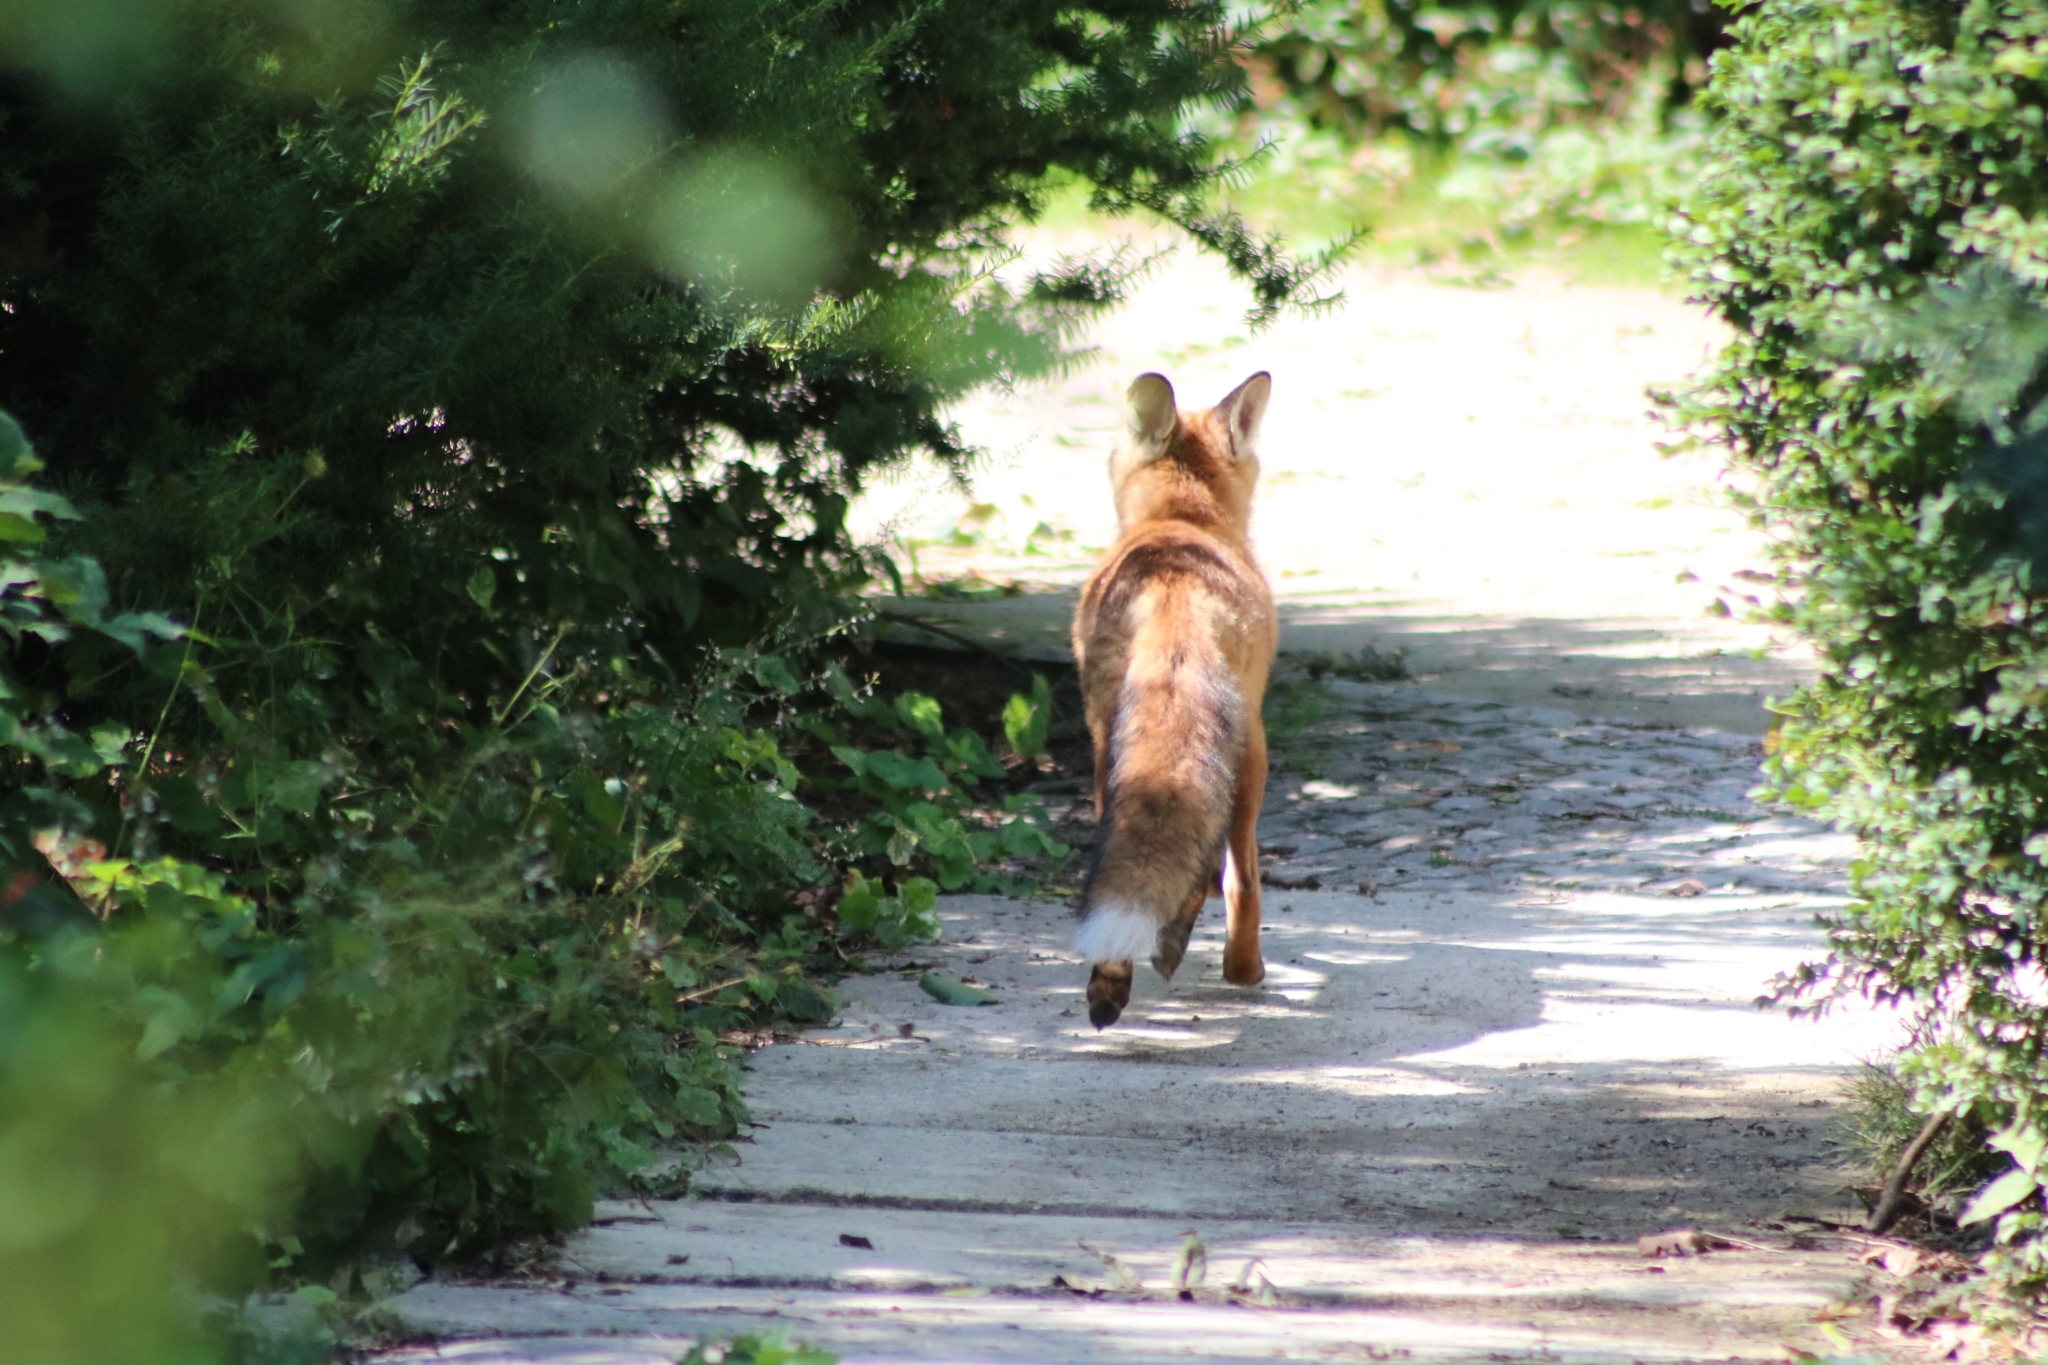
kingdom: Animalia
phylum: Chordata
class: Mammalia
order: Carnivora
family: Canidae
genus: Vulpes
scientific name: Vulpes vulpes
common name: Red fox
